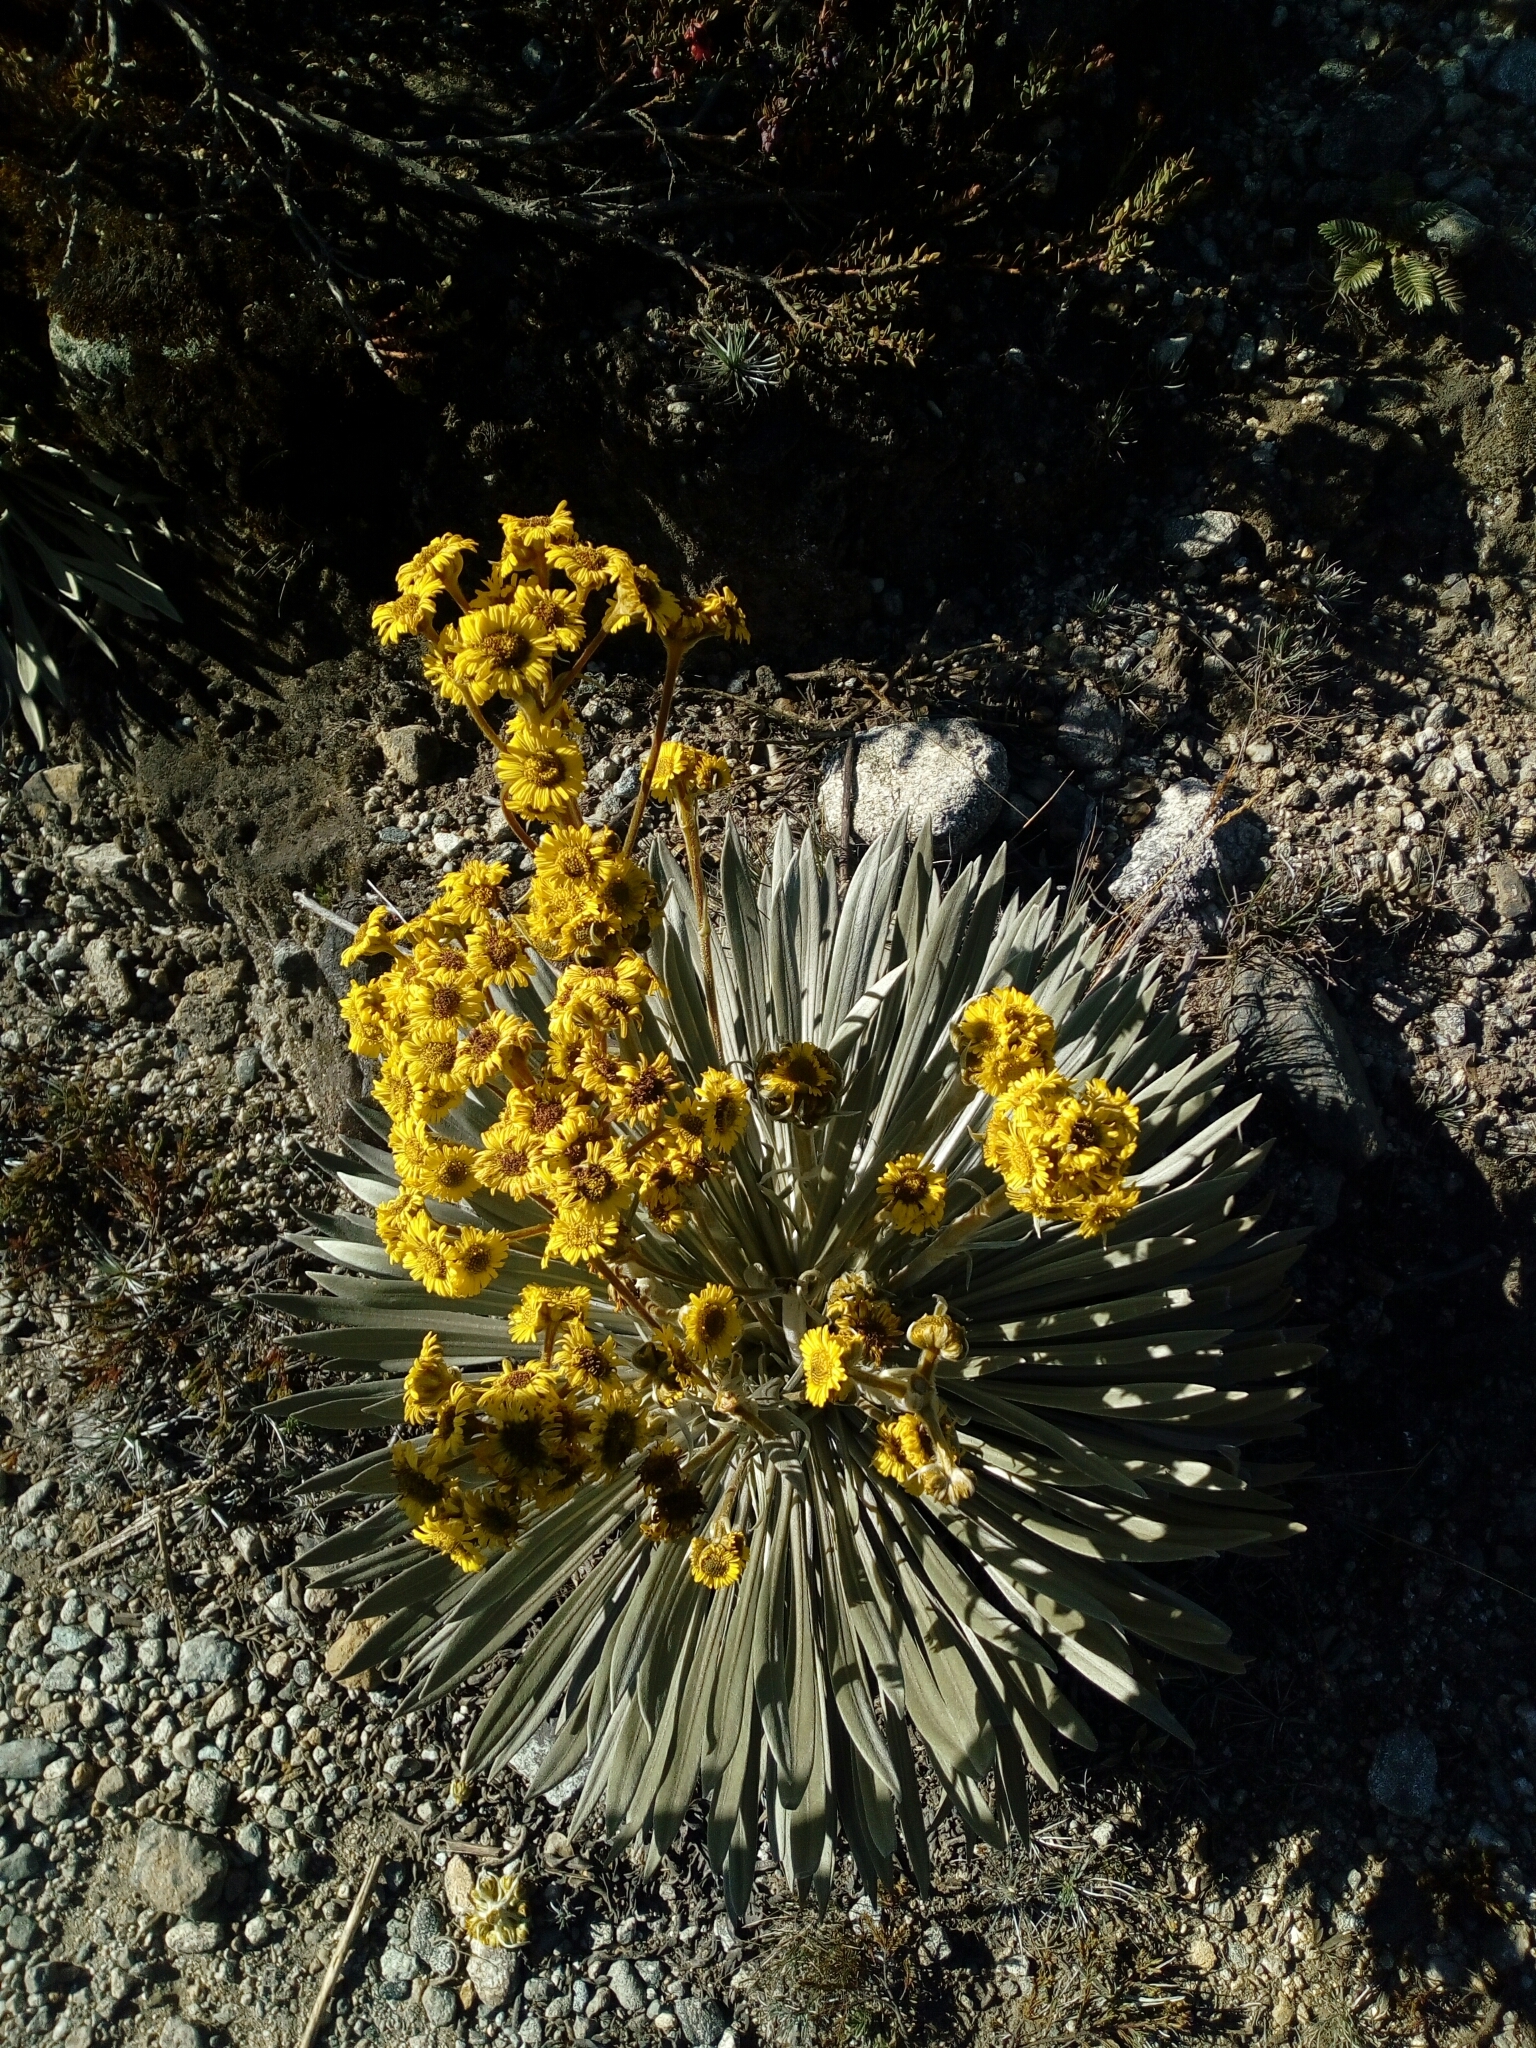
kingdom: Plantae
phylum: Tracheophyta
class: Magnoliopsida
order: Asterales
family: Asteraceae
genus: Espeletia
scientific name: Espeletia santanderensis
